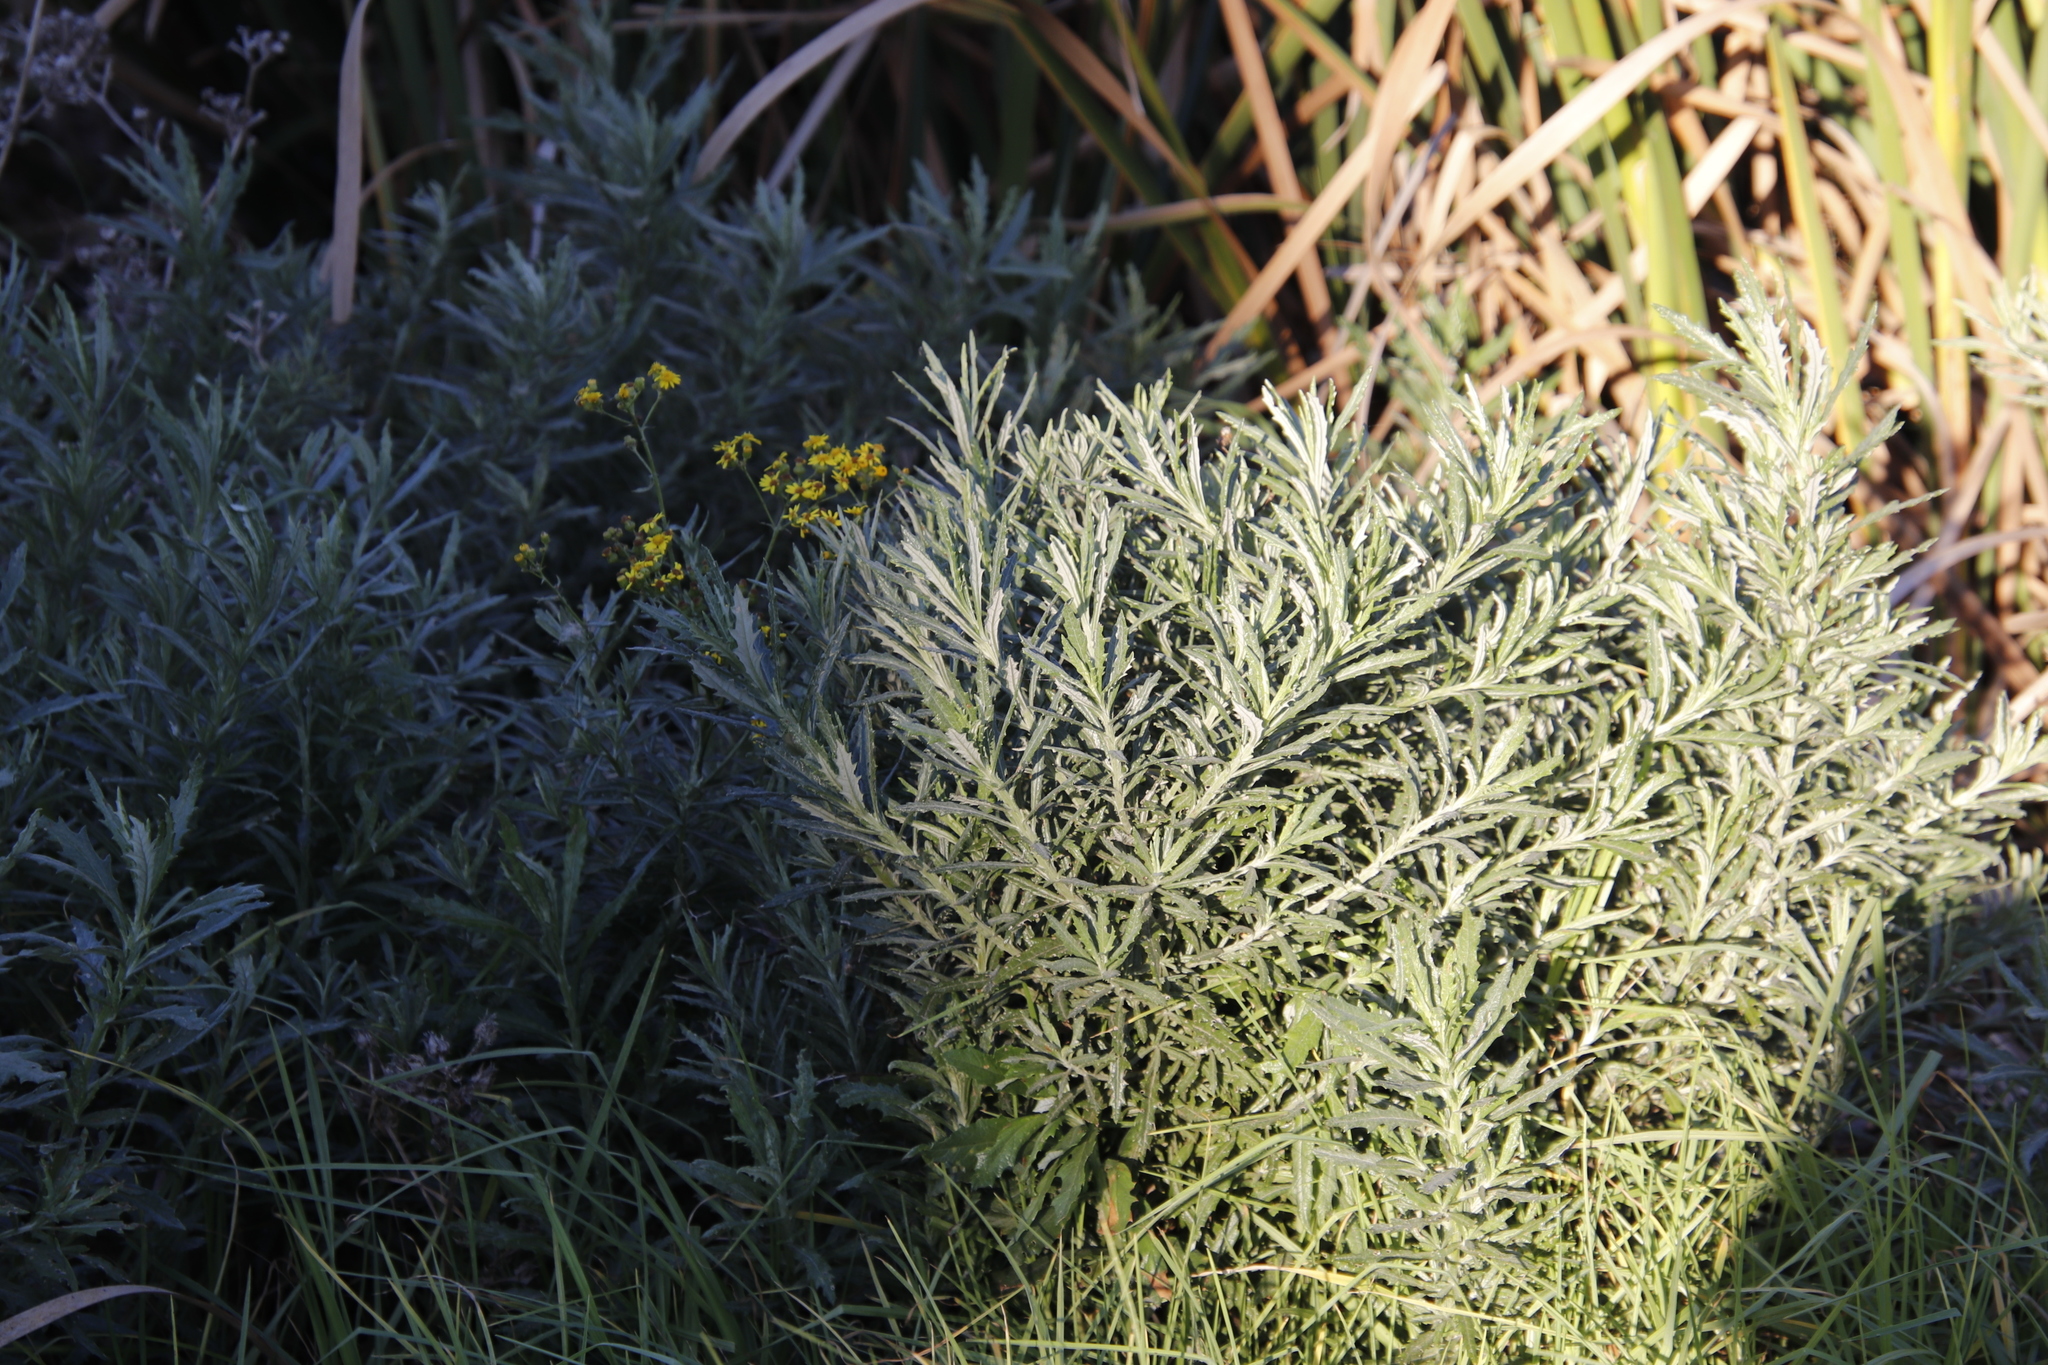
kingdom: Plantae
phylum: Tracheophyta
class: Magnoliopsida
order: Asterales
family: Asteraceae
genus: Senecio
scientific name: Senecio pterophorus
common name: Shoddy ragwort
